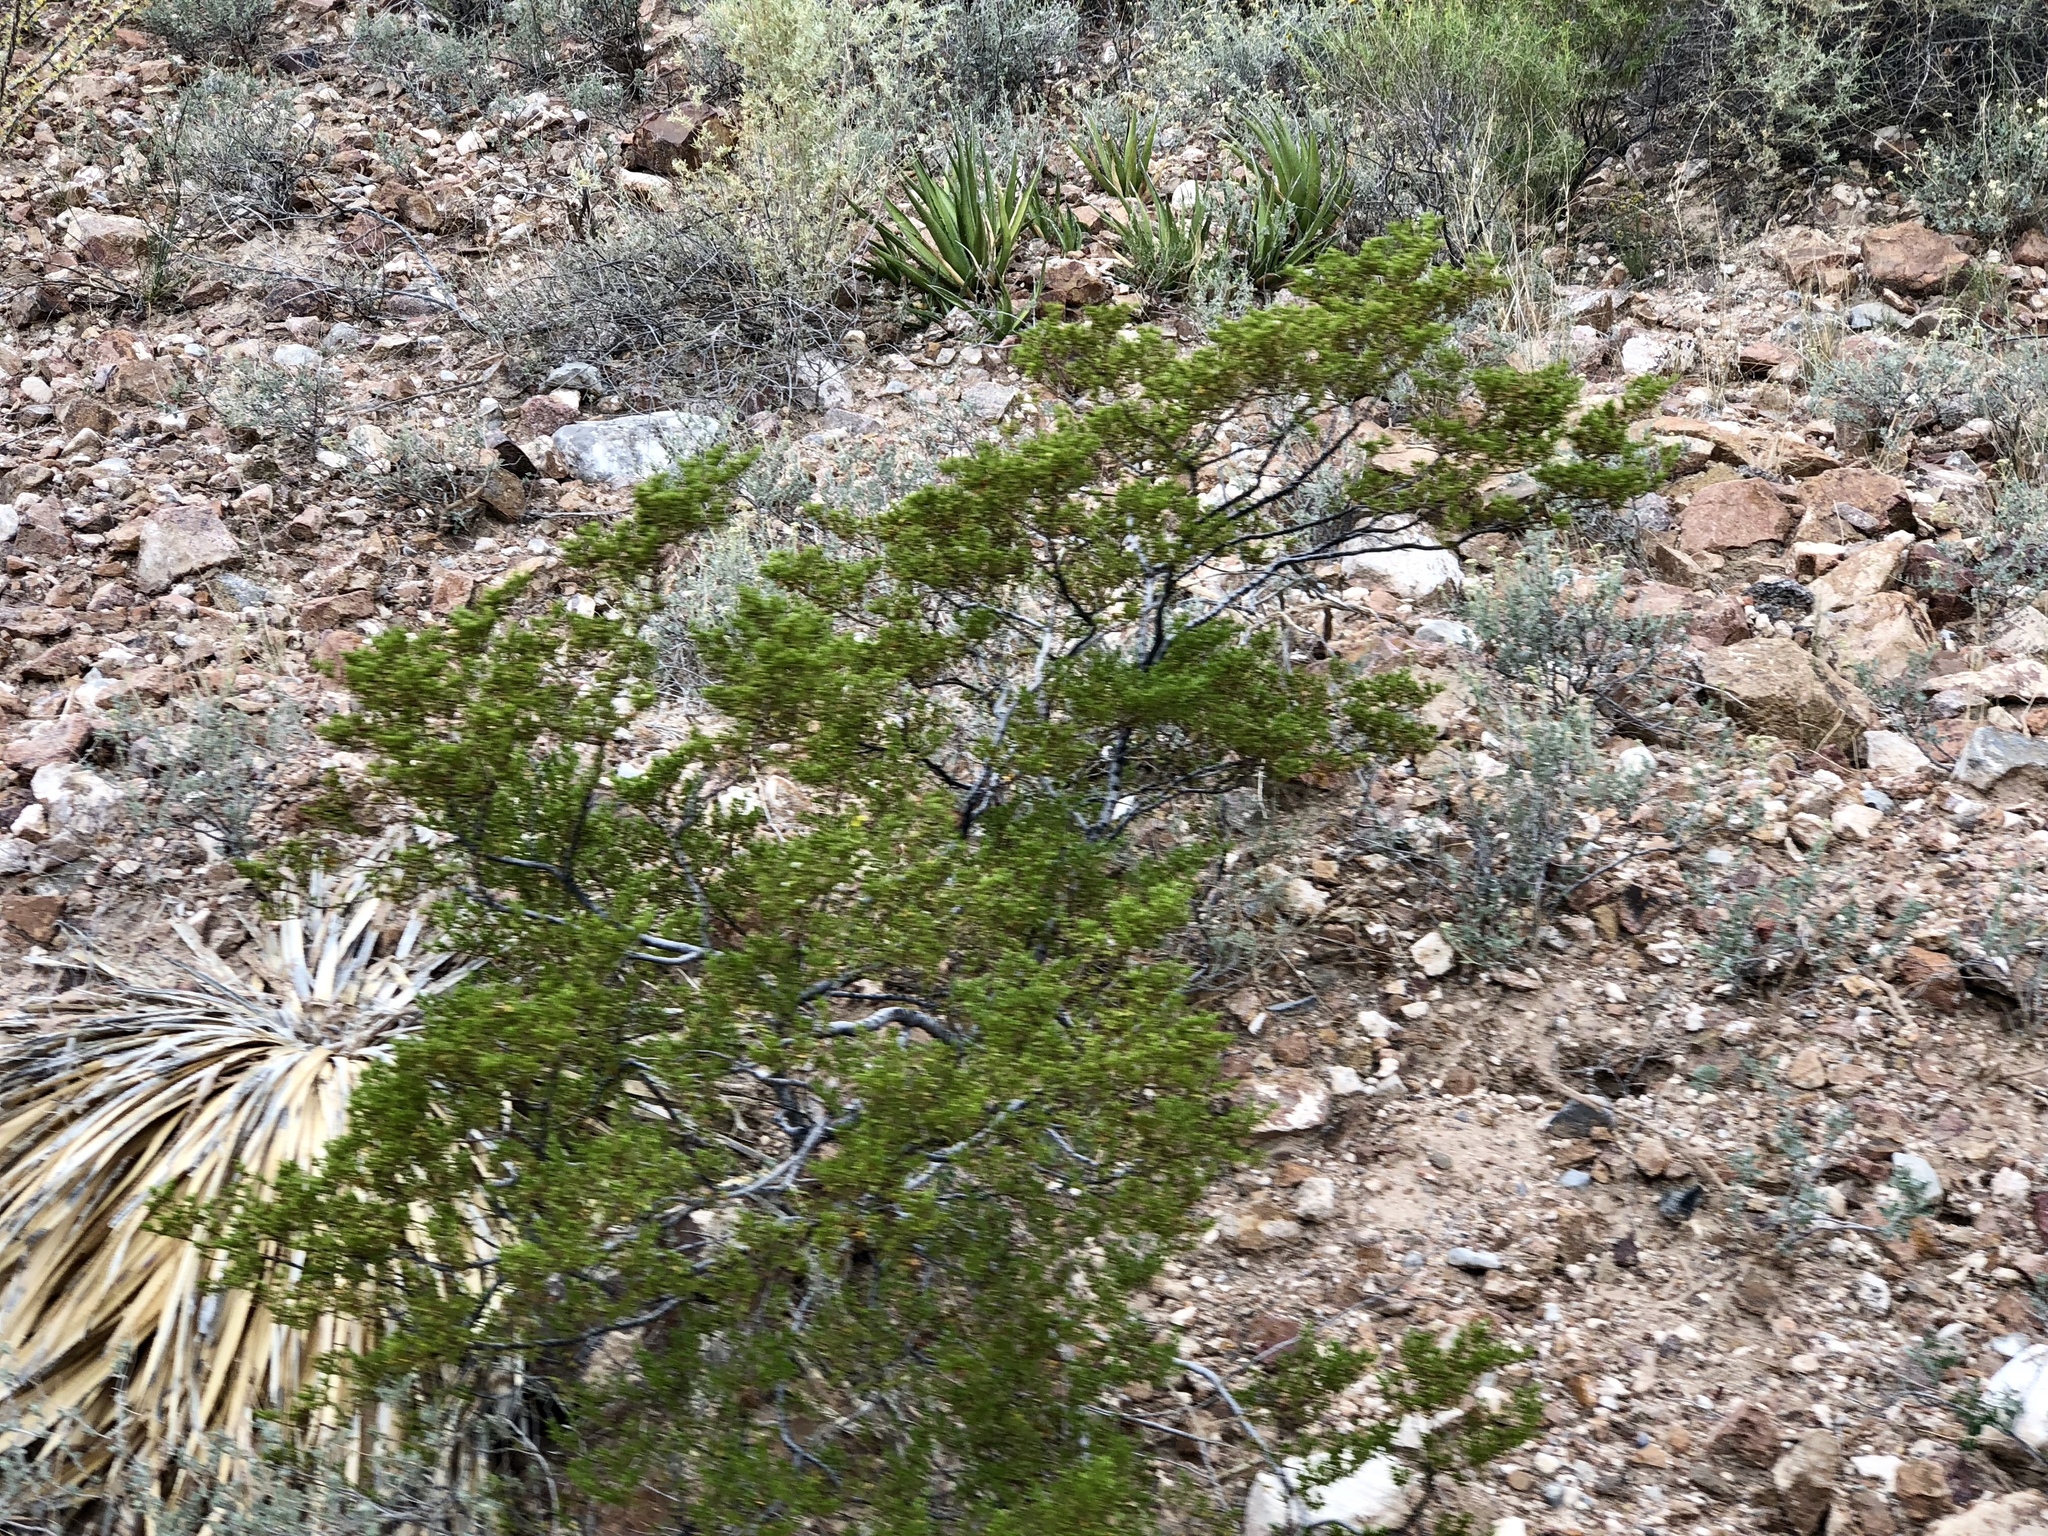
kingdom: Plantae
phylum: Tracheophyta
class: Magnoliopsida
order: Zygophyllales
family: Zygophyllaceae
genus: Larrea
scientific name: Larrea tridentata
